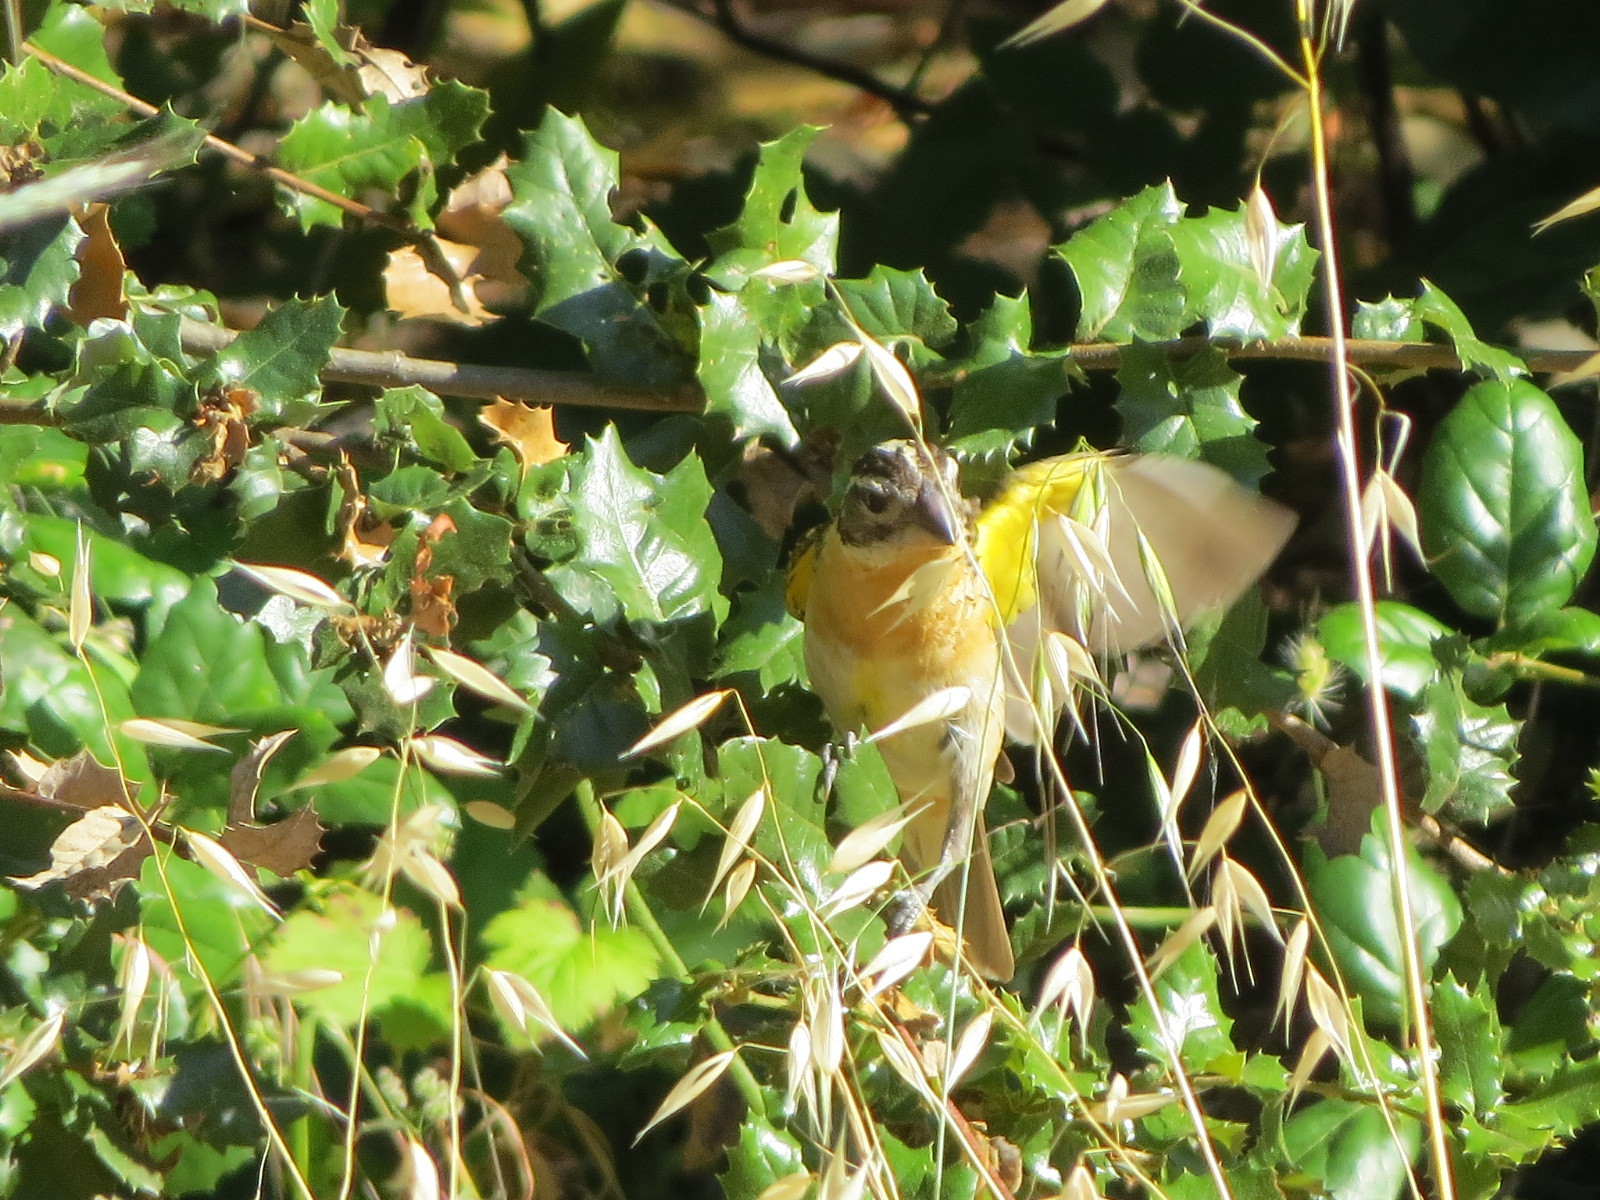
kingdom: Animalia
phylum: Chordata
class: Aves
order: Passeriformes
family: Cardinalidae
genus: Pheucticus
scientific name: Pheucticus melanocephalus
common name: Black-headed grosbeak
